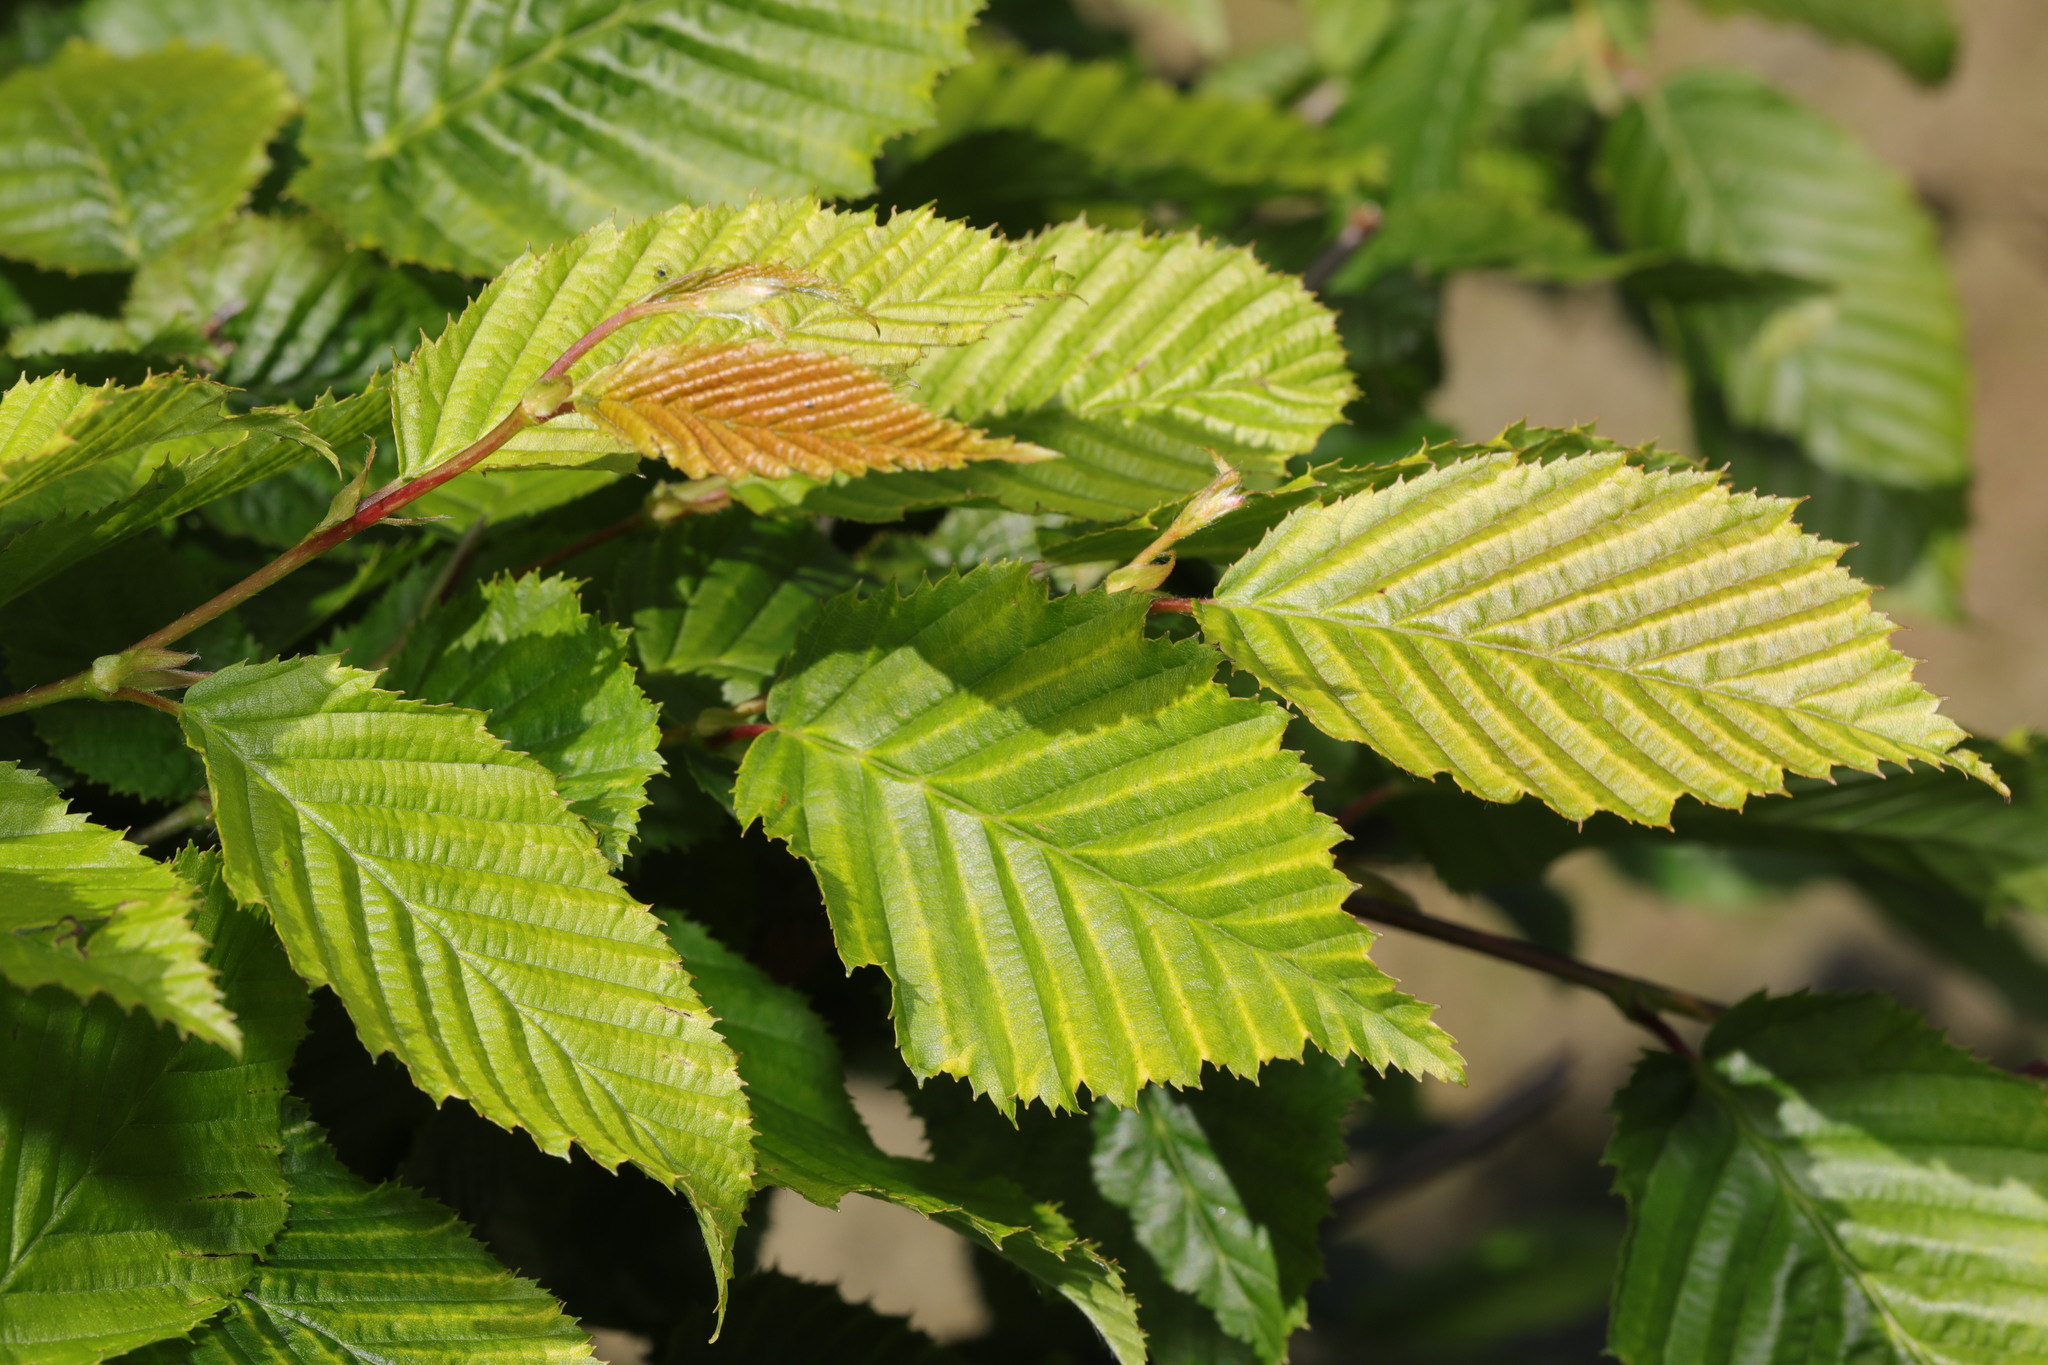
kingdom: Plantae
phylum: Tracheophyta
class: Magnoliopsida
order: Fagales
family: Betulaceae
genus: Carpinus
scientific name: Carpinus betulus
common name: Hornbeam
